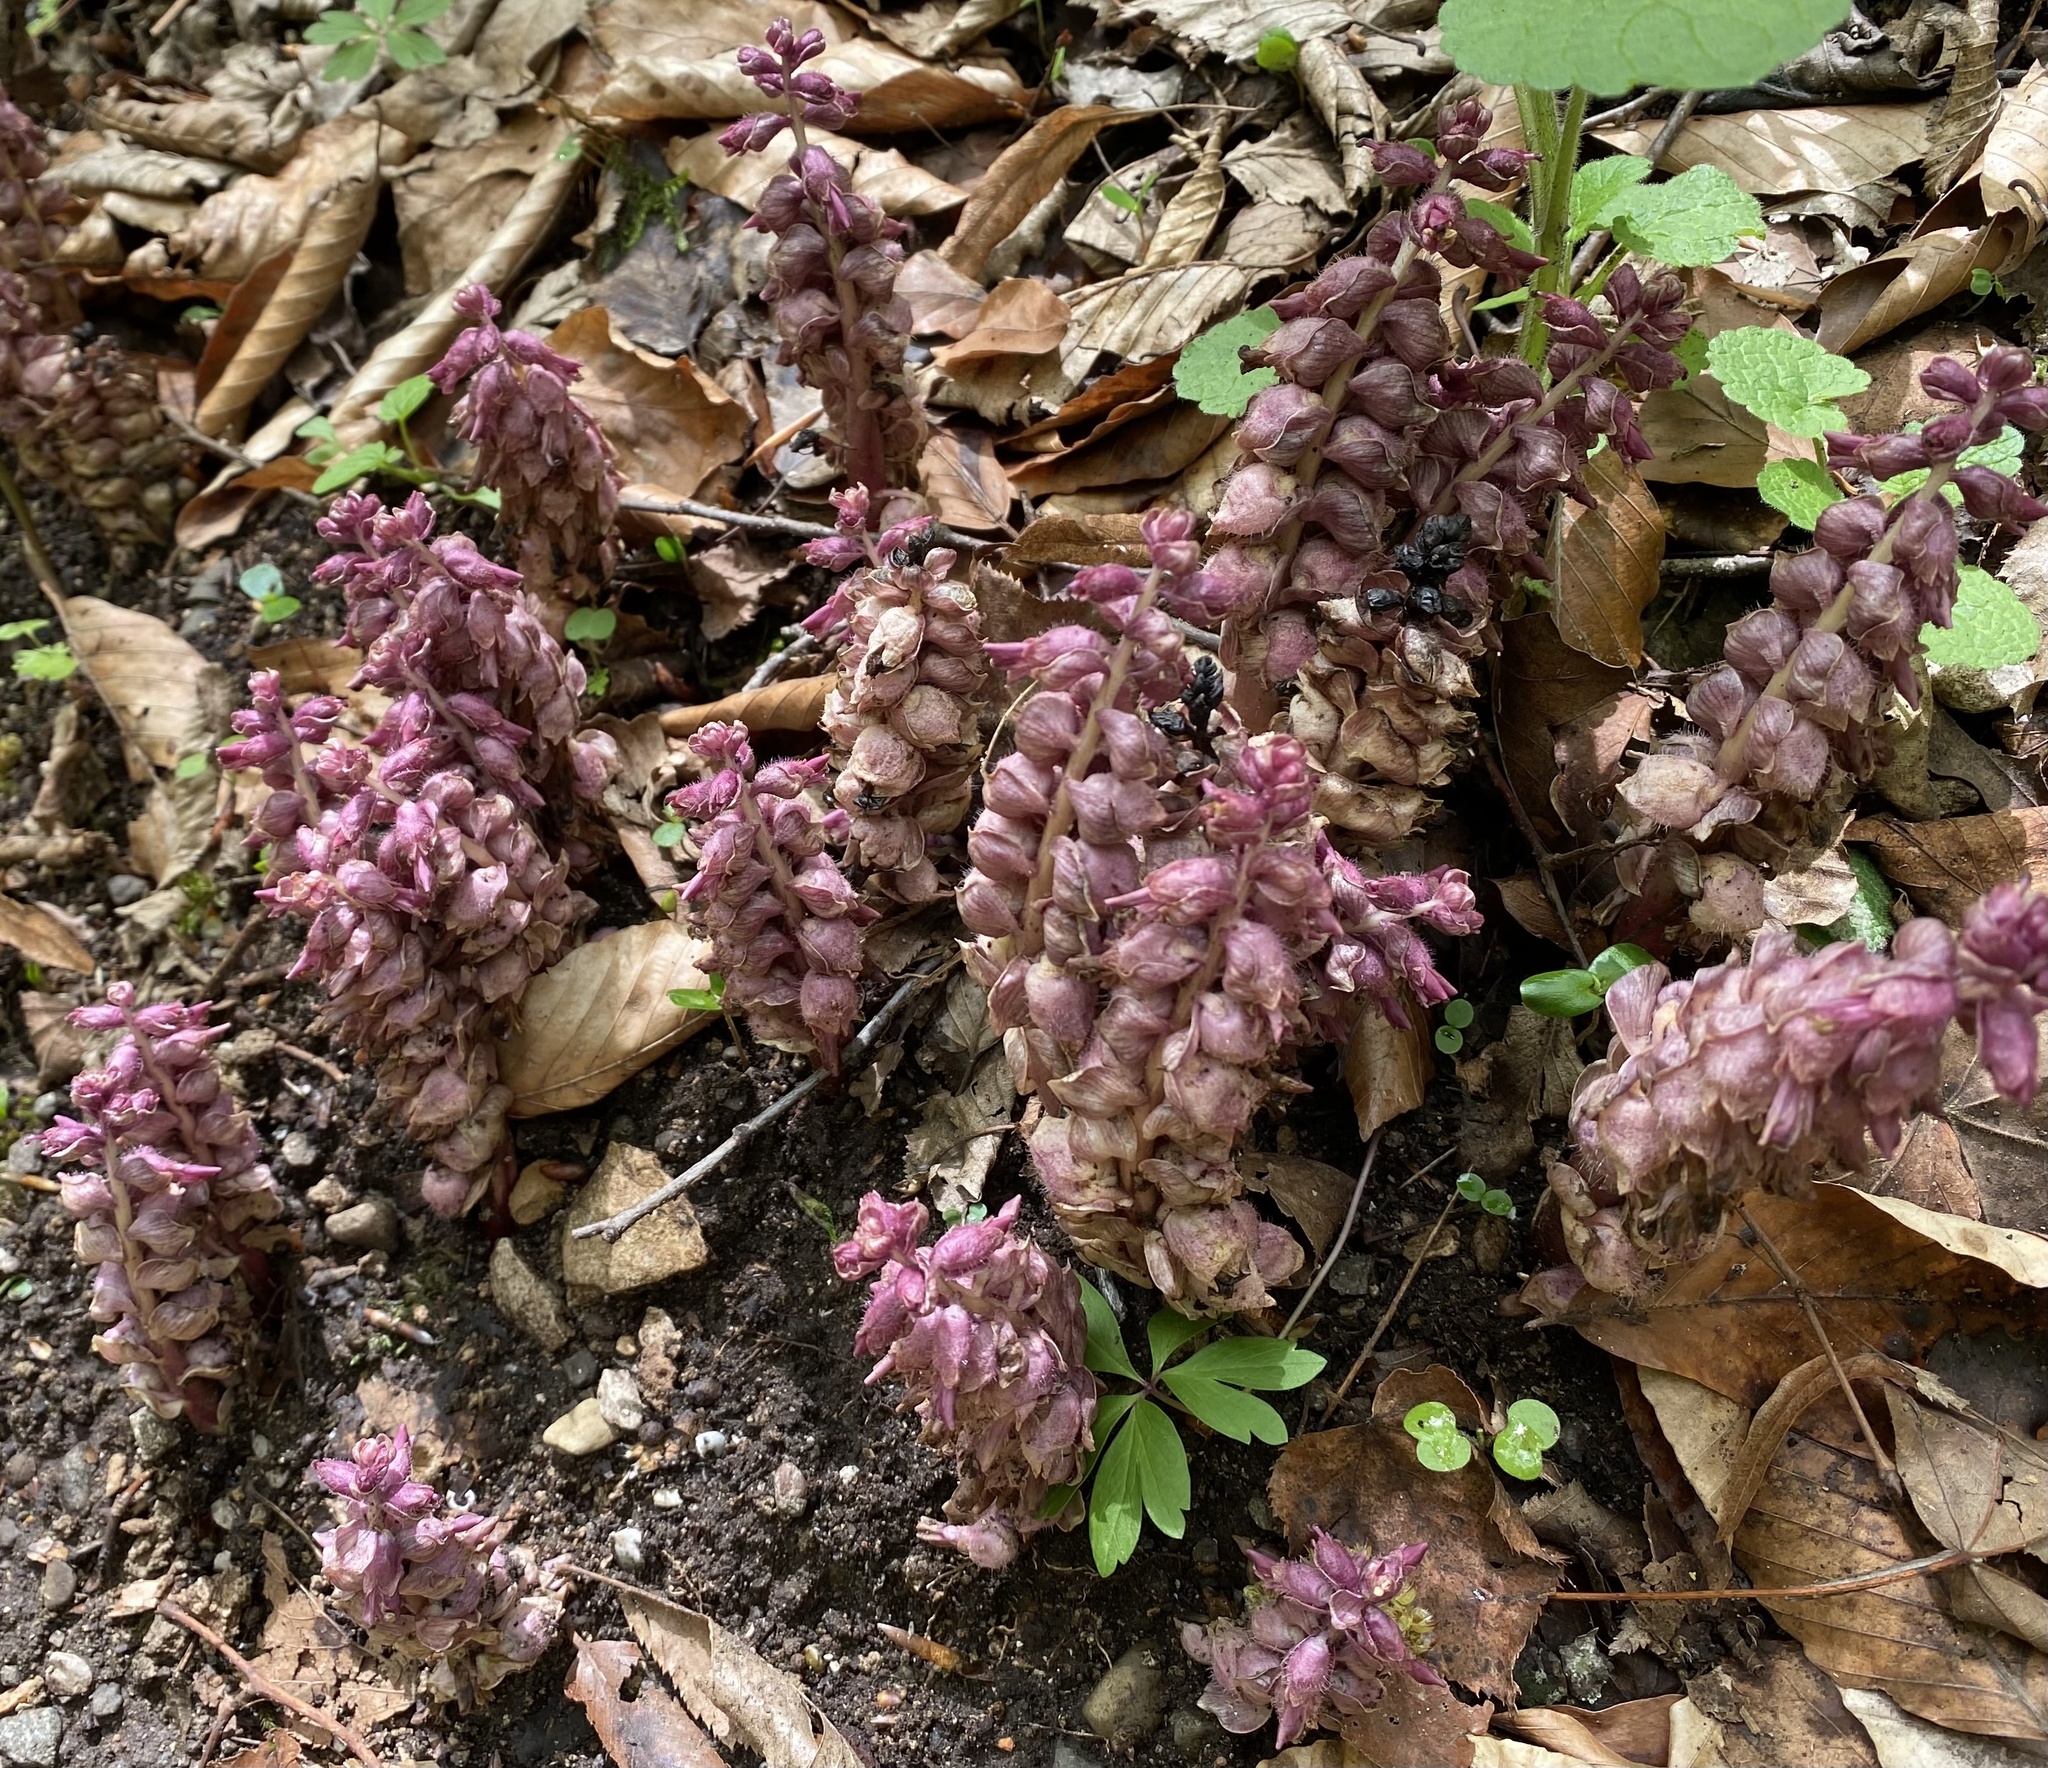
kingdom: Plantae
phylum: Tracheophyta
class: Magnoliopsida
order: Lamiales
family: Orobanchaceae
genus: Lathraea
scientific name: Lathraea squamaria
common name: Toothwort
